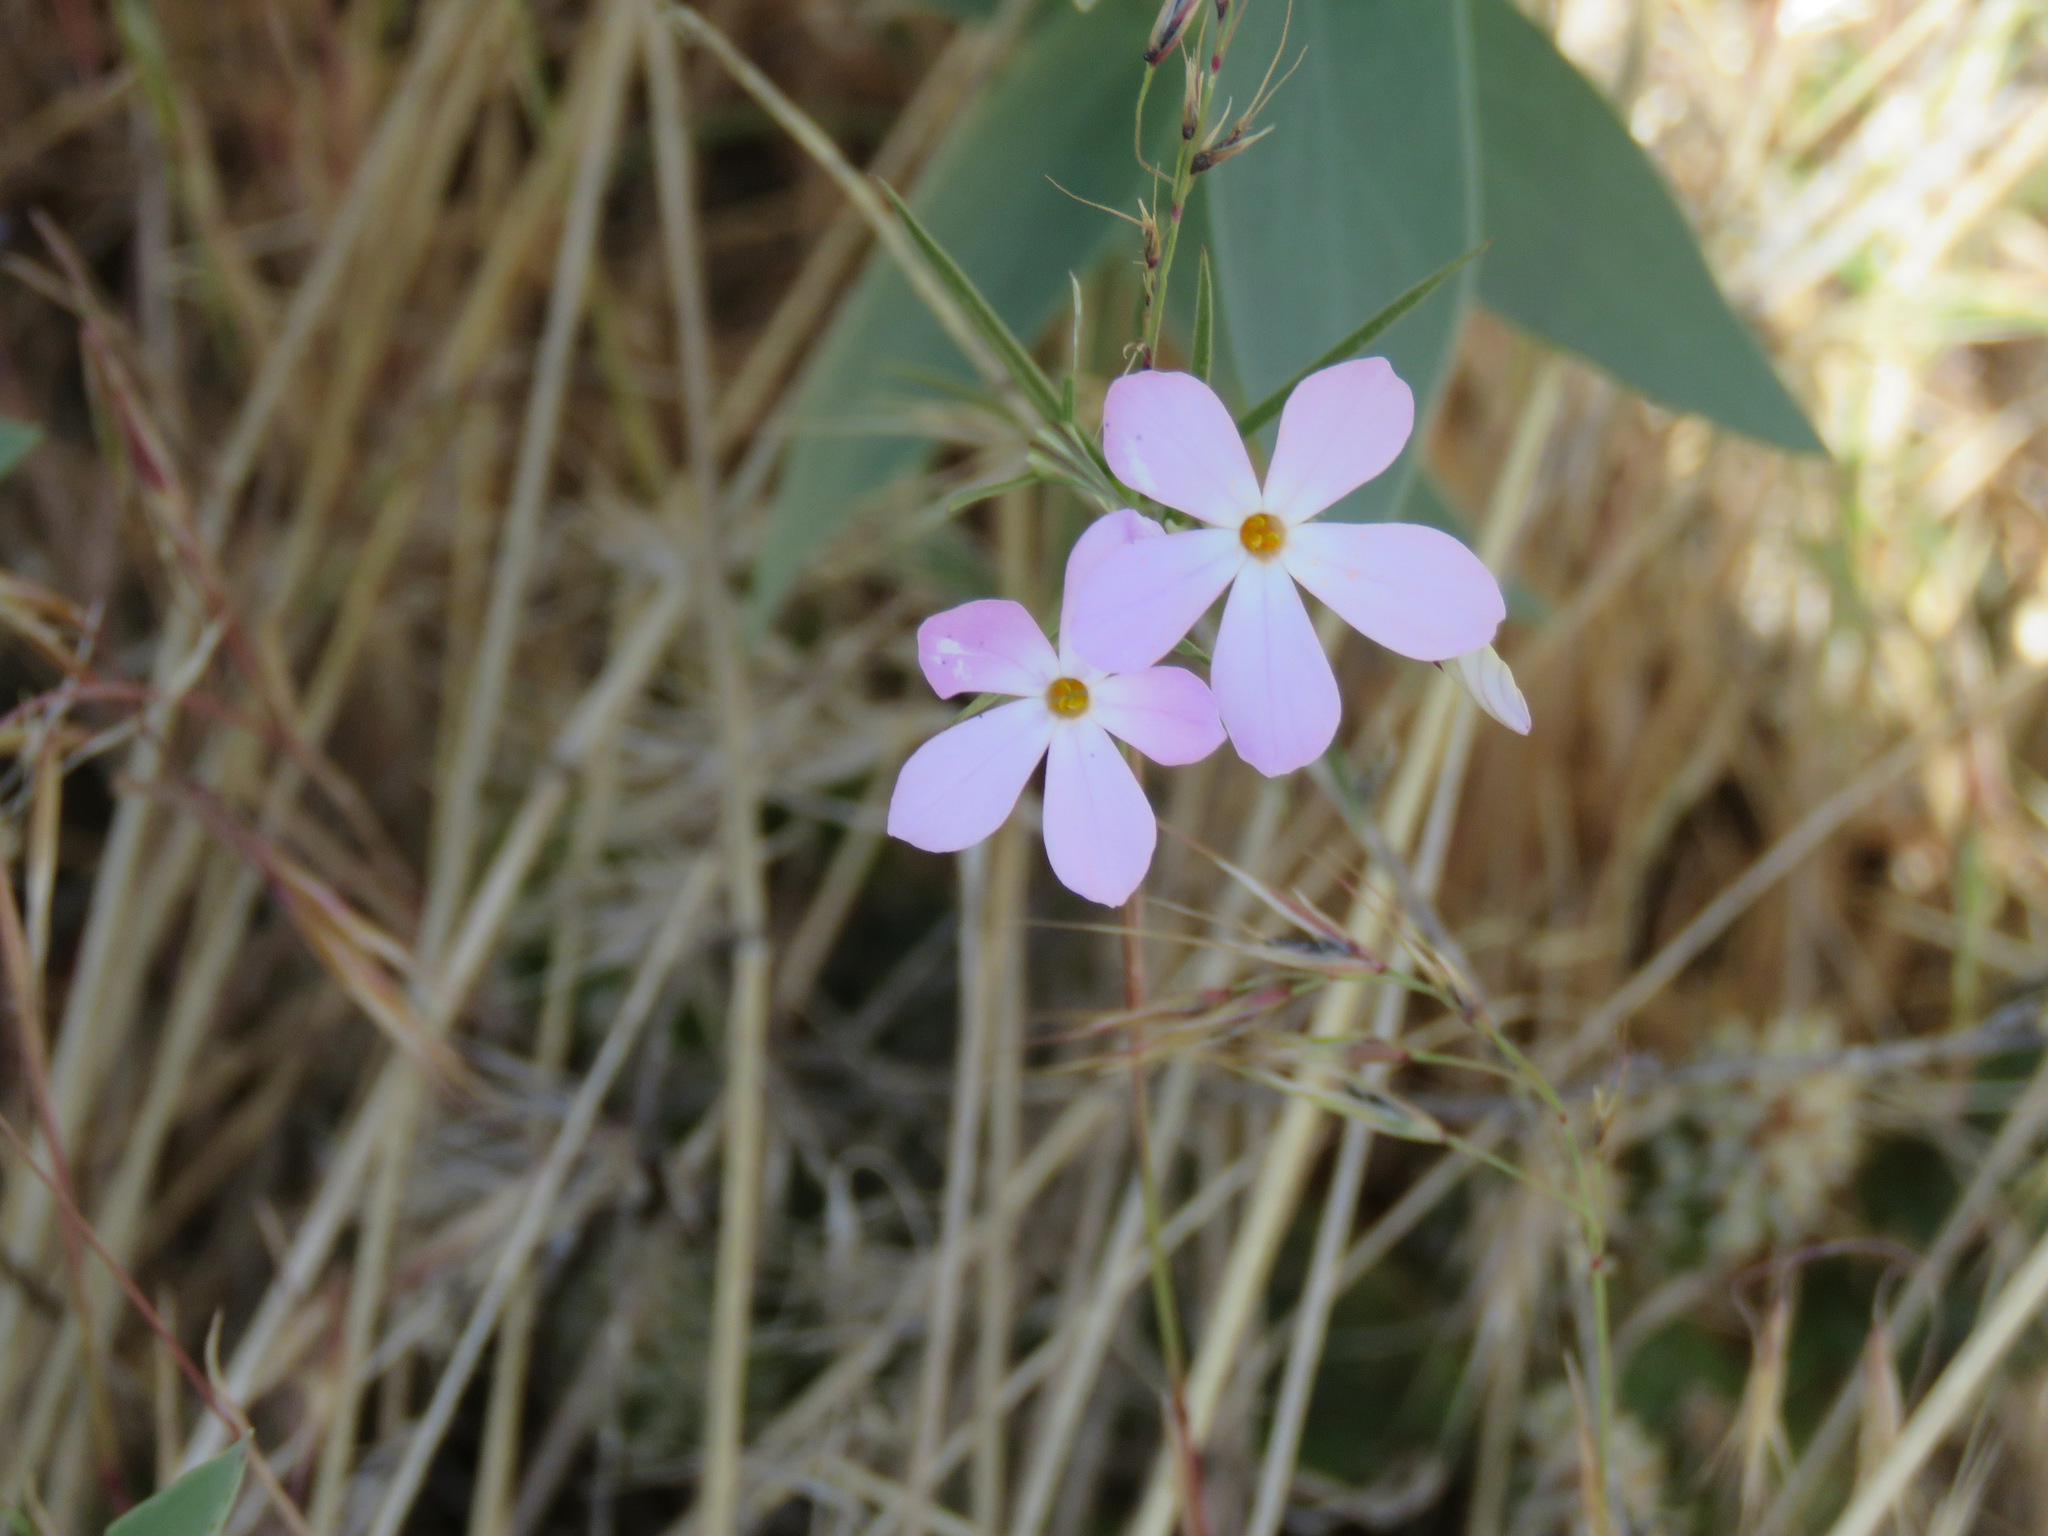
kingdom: Plantae
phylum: Tracheophyta
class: Magnoliopsida
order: Ericales
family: Polemoniaceae
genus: Phlox
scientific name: Phlox longifolia
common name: Longleaf phlox
